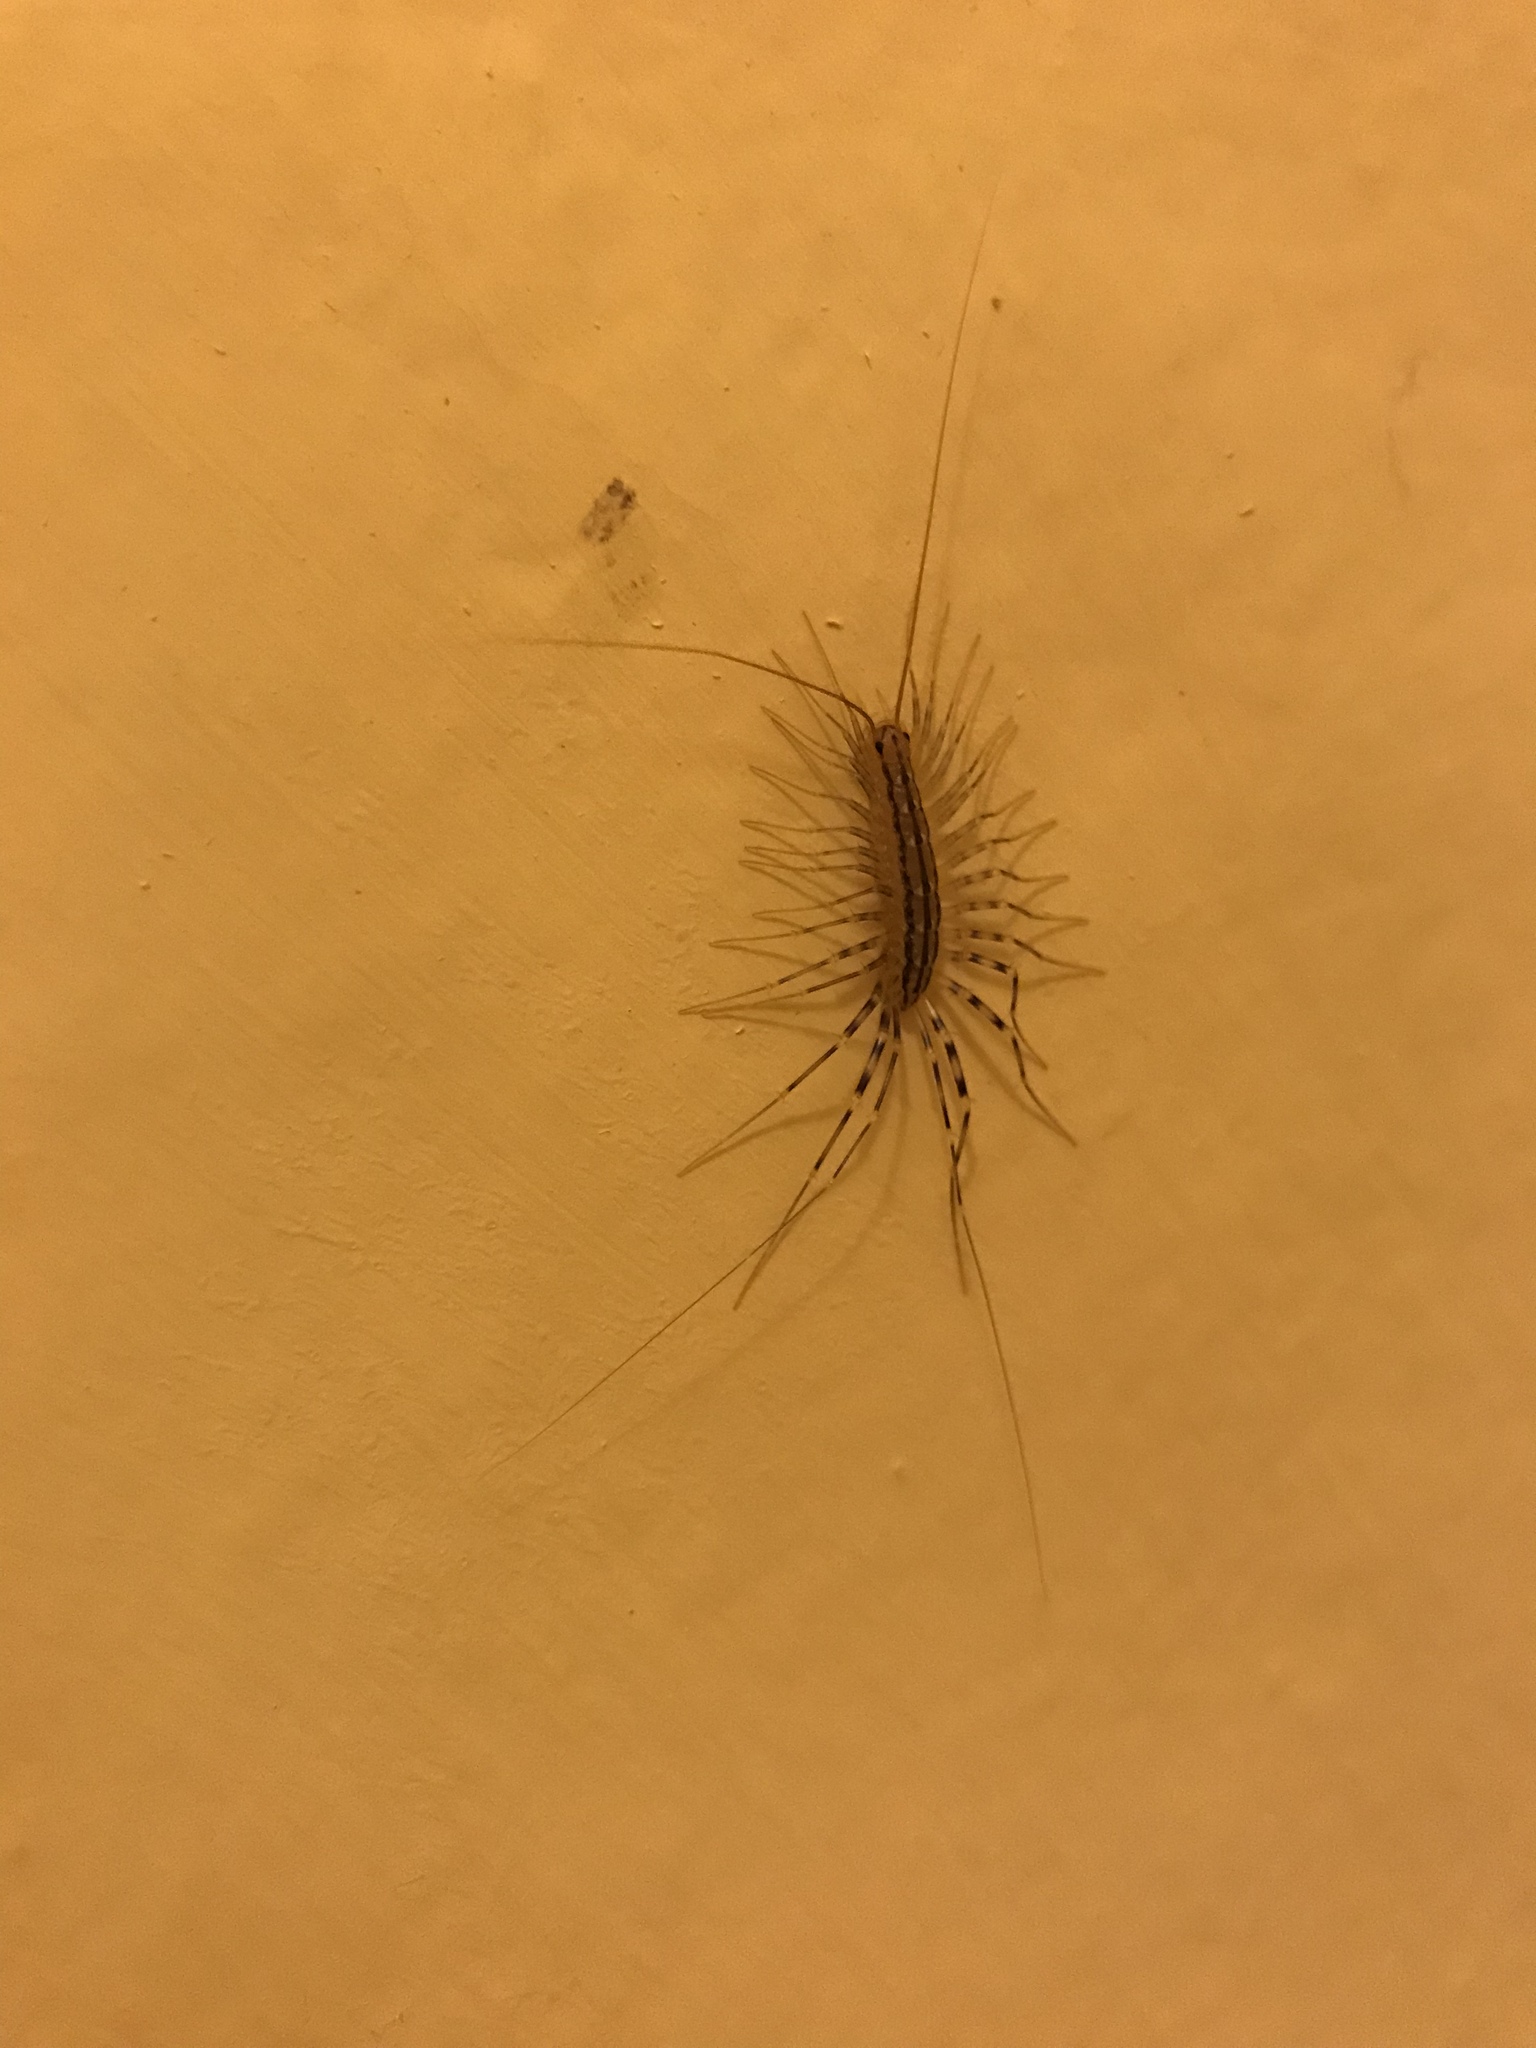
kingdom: Animalia
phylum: Arthropoda
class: Chilopoda
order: Scutigeromorpha
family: Scutigeridae
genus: Scutigera
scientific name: Scutigera coleoptrata
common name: House centipede
